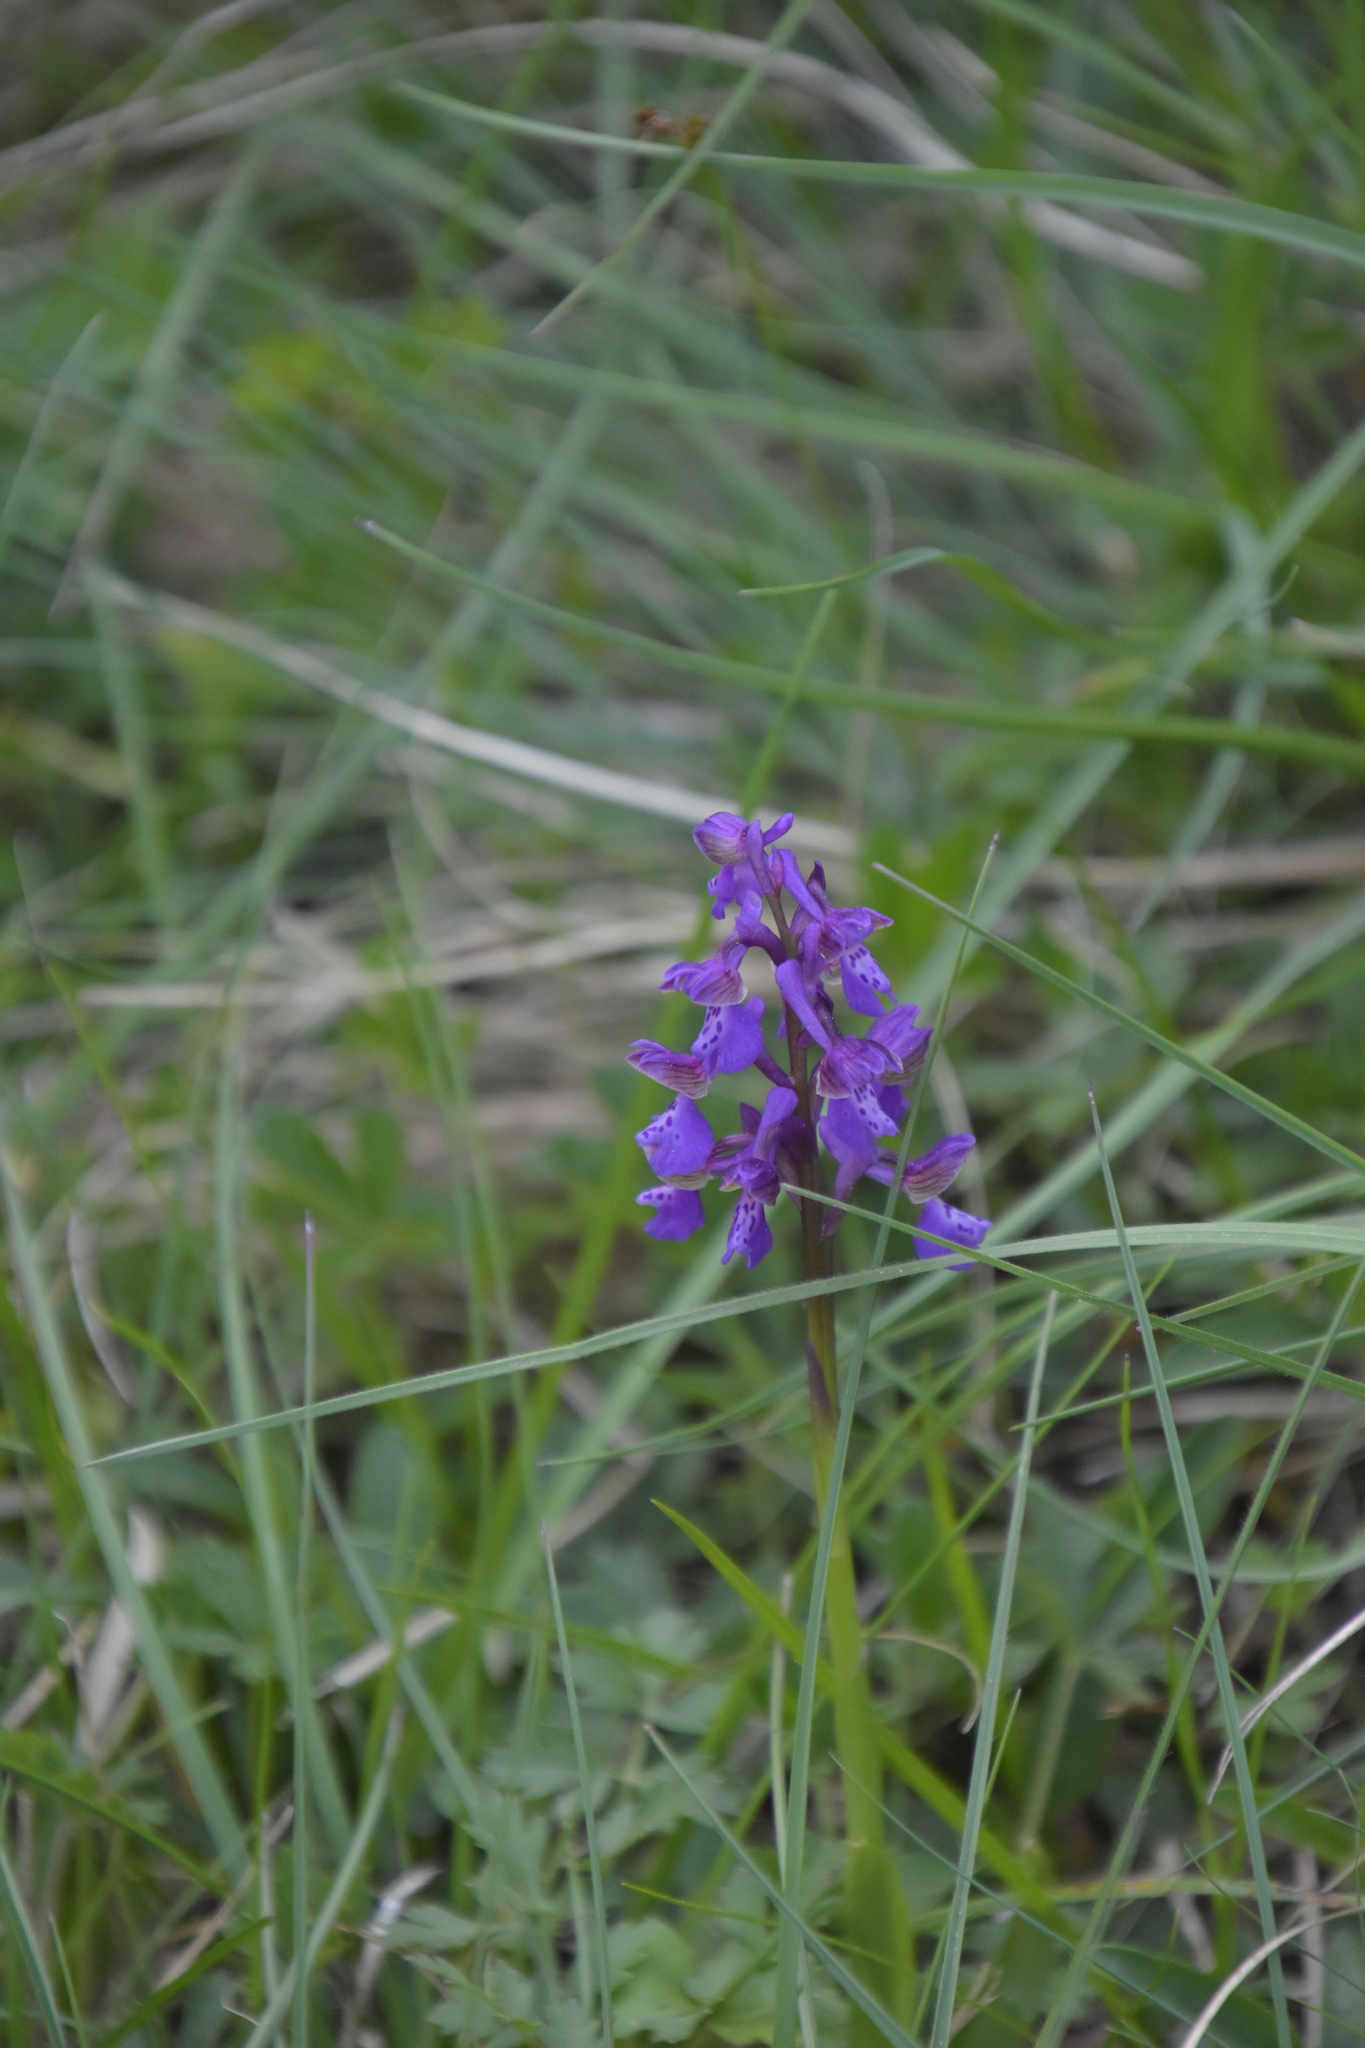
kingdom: Plantae
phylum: Tracheophyta
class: Liliopsida
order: Asparagales
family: Orchidaceae
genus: Anacamptis
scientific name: Anacamptis morio
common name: Green-winged orchid
